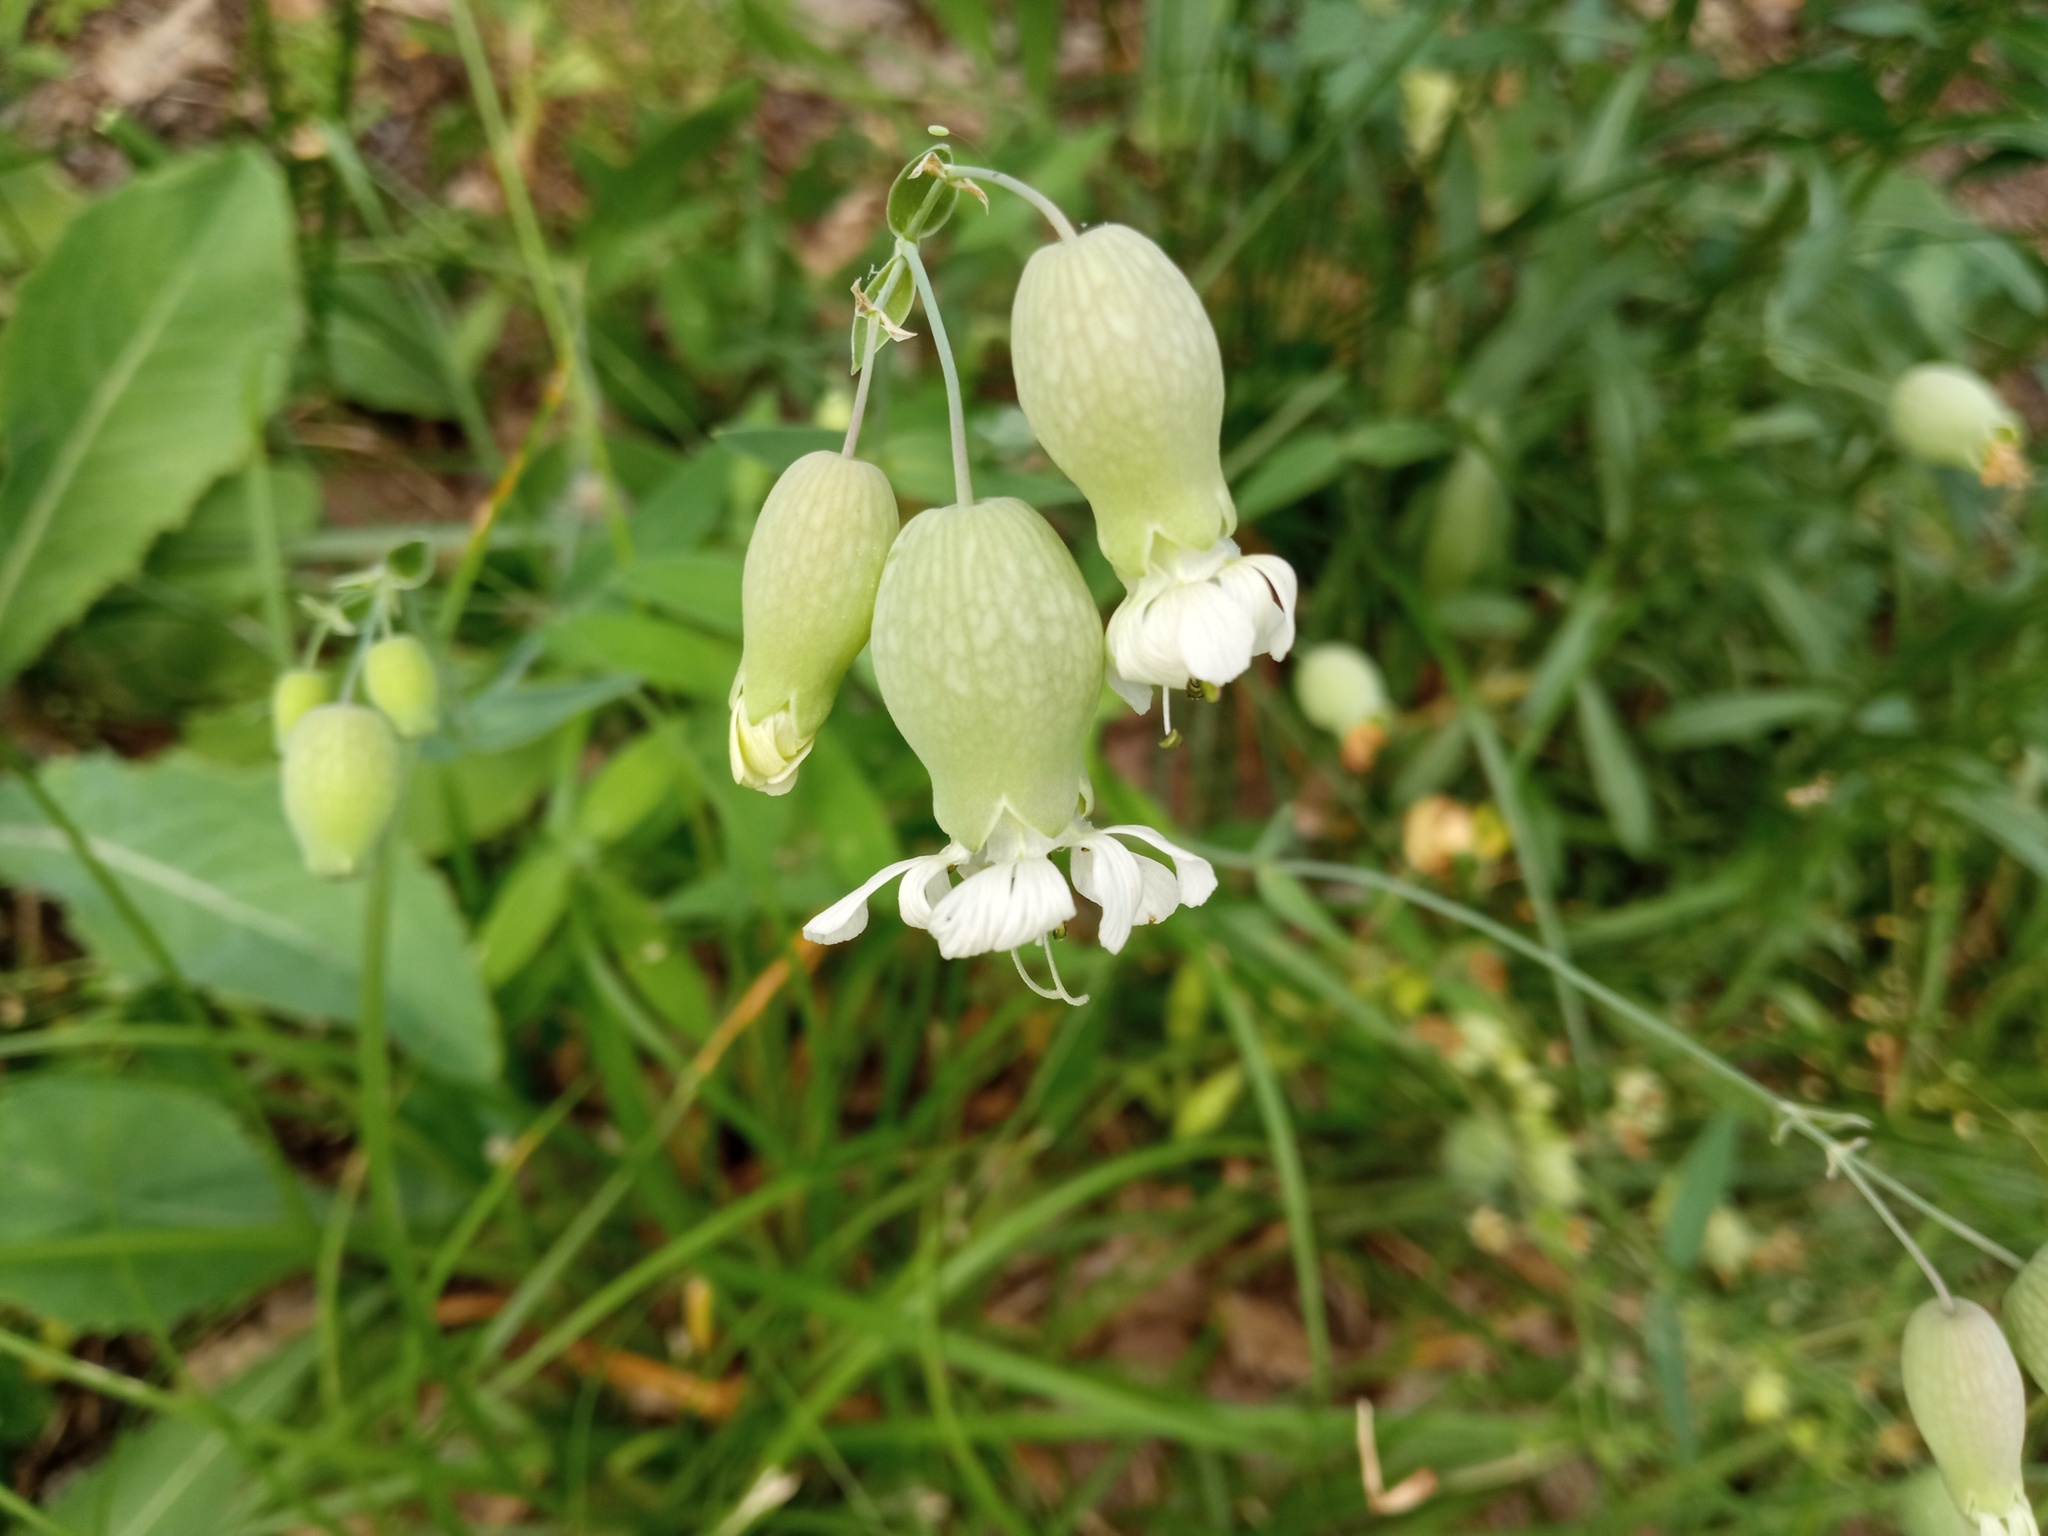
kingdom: Plantae
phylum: Tracheophyta
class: Magnoliopsida
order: Caryophyllales
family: Caryophyllaceae
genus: Silene
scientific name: Silene vulgaris
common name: Bladder campion
